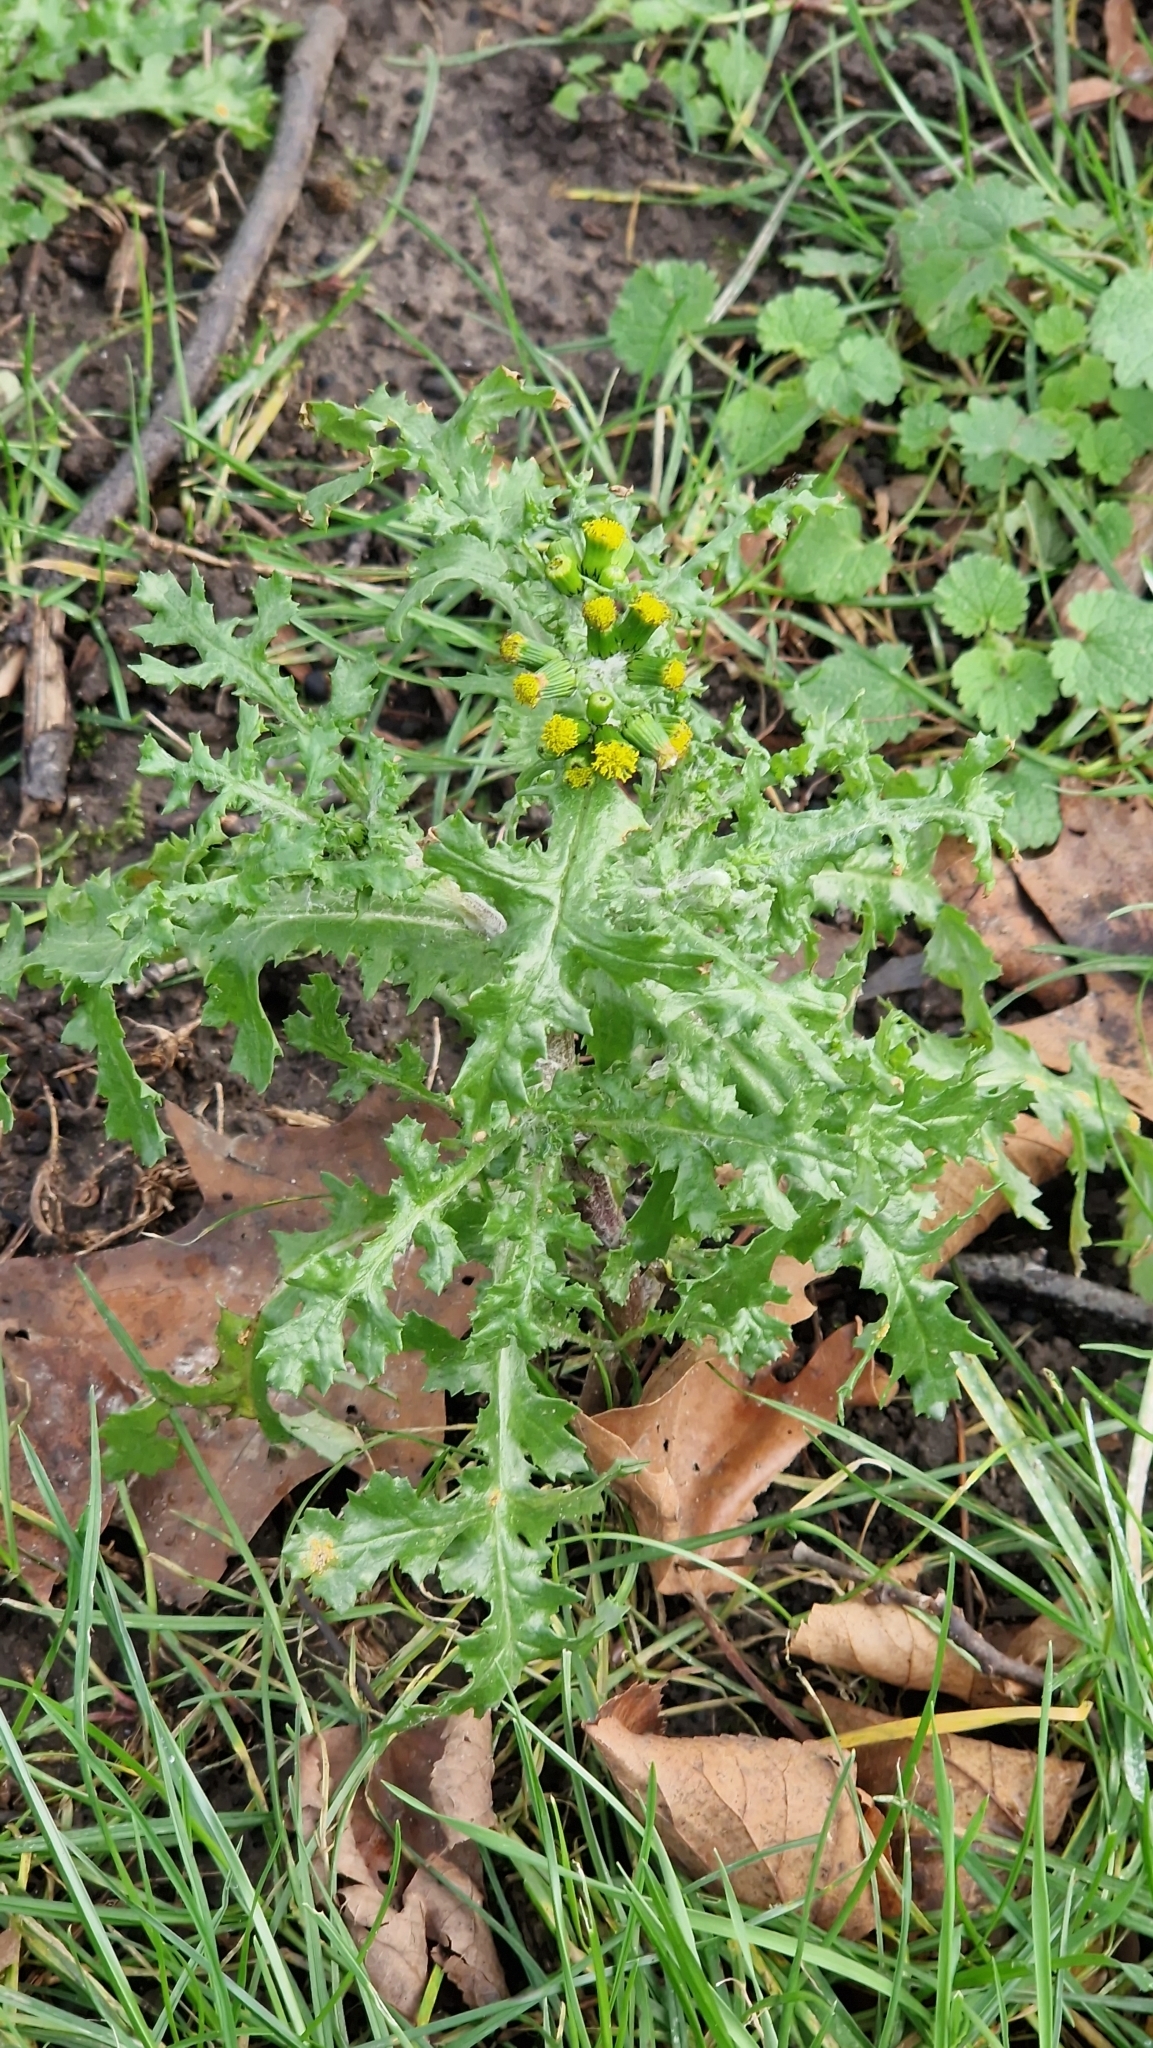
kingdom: Plantae
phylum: Tracheophyta
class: Magnoliopsida
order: Asterales
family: Asteraceae
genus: Senecio
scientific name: Senecio vulgaris
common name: Old-man-in-the-spring
